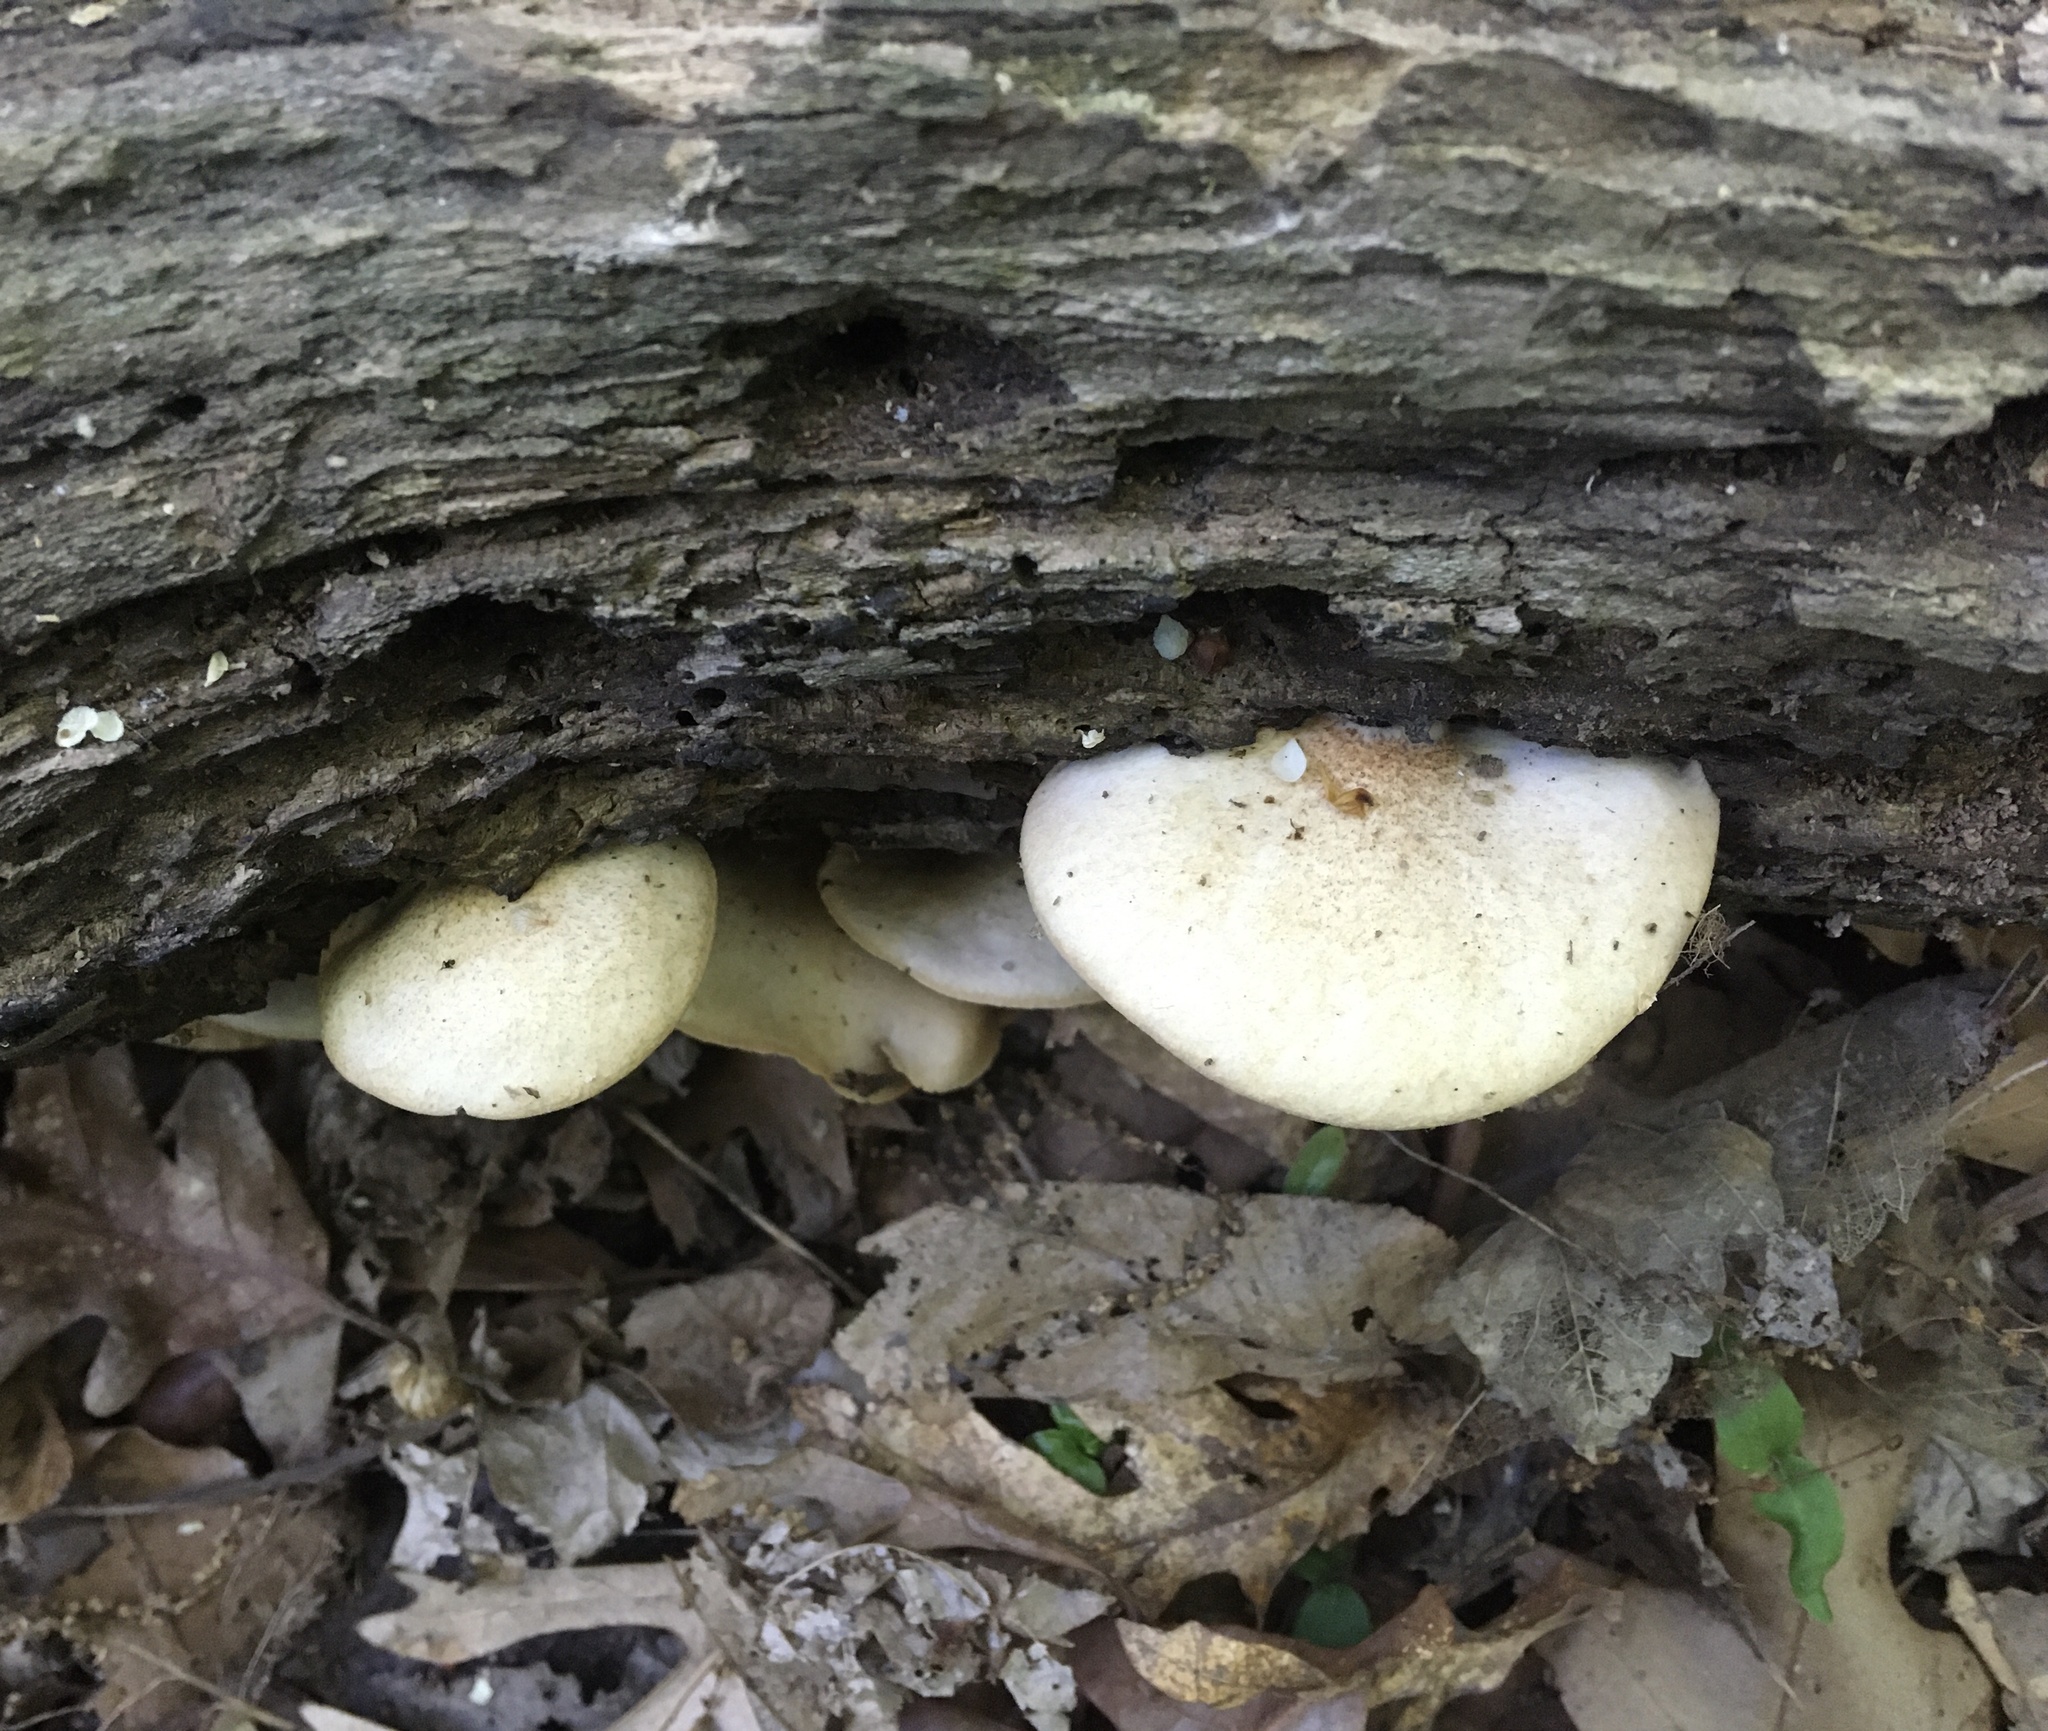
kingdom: Fungi
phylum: Basidiomycota
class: Agaricomycetes
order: Agaricales
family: Crepidotaceae
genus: Crepidotus
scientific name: Crepidotus mollis
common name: Peeling oysterling
